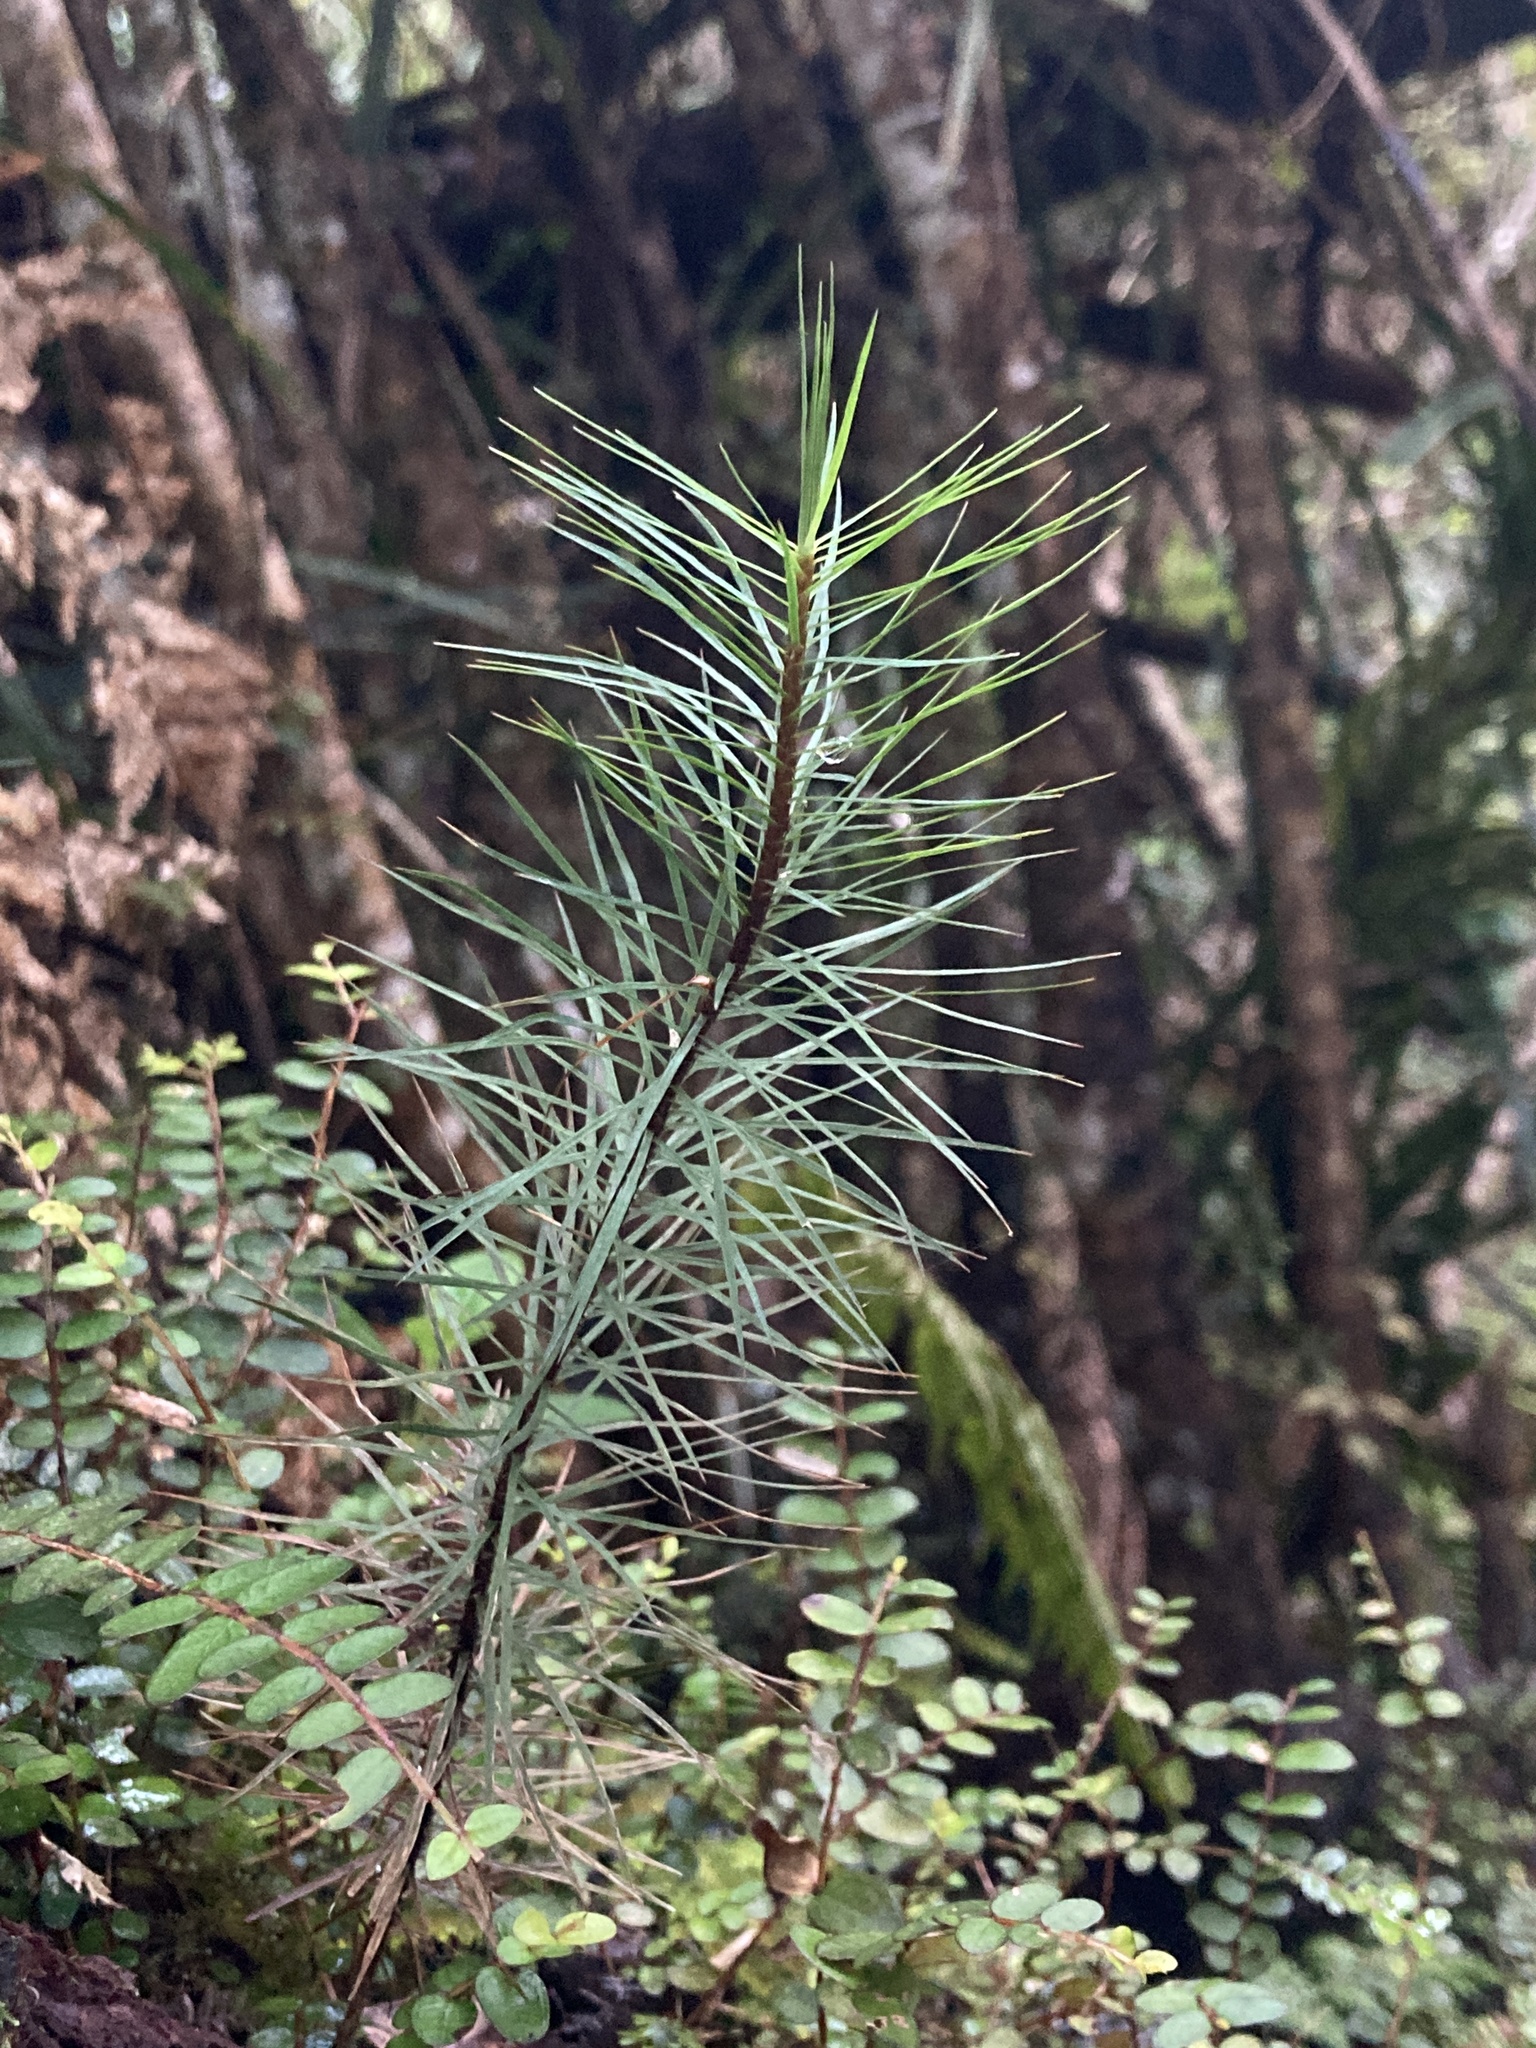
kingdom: Plantae
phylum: Bryophyta
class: Polytrichopsida
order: Polytrichales
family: Polytrichaceae
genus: Dawsonia
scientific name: Dawsonia superba
